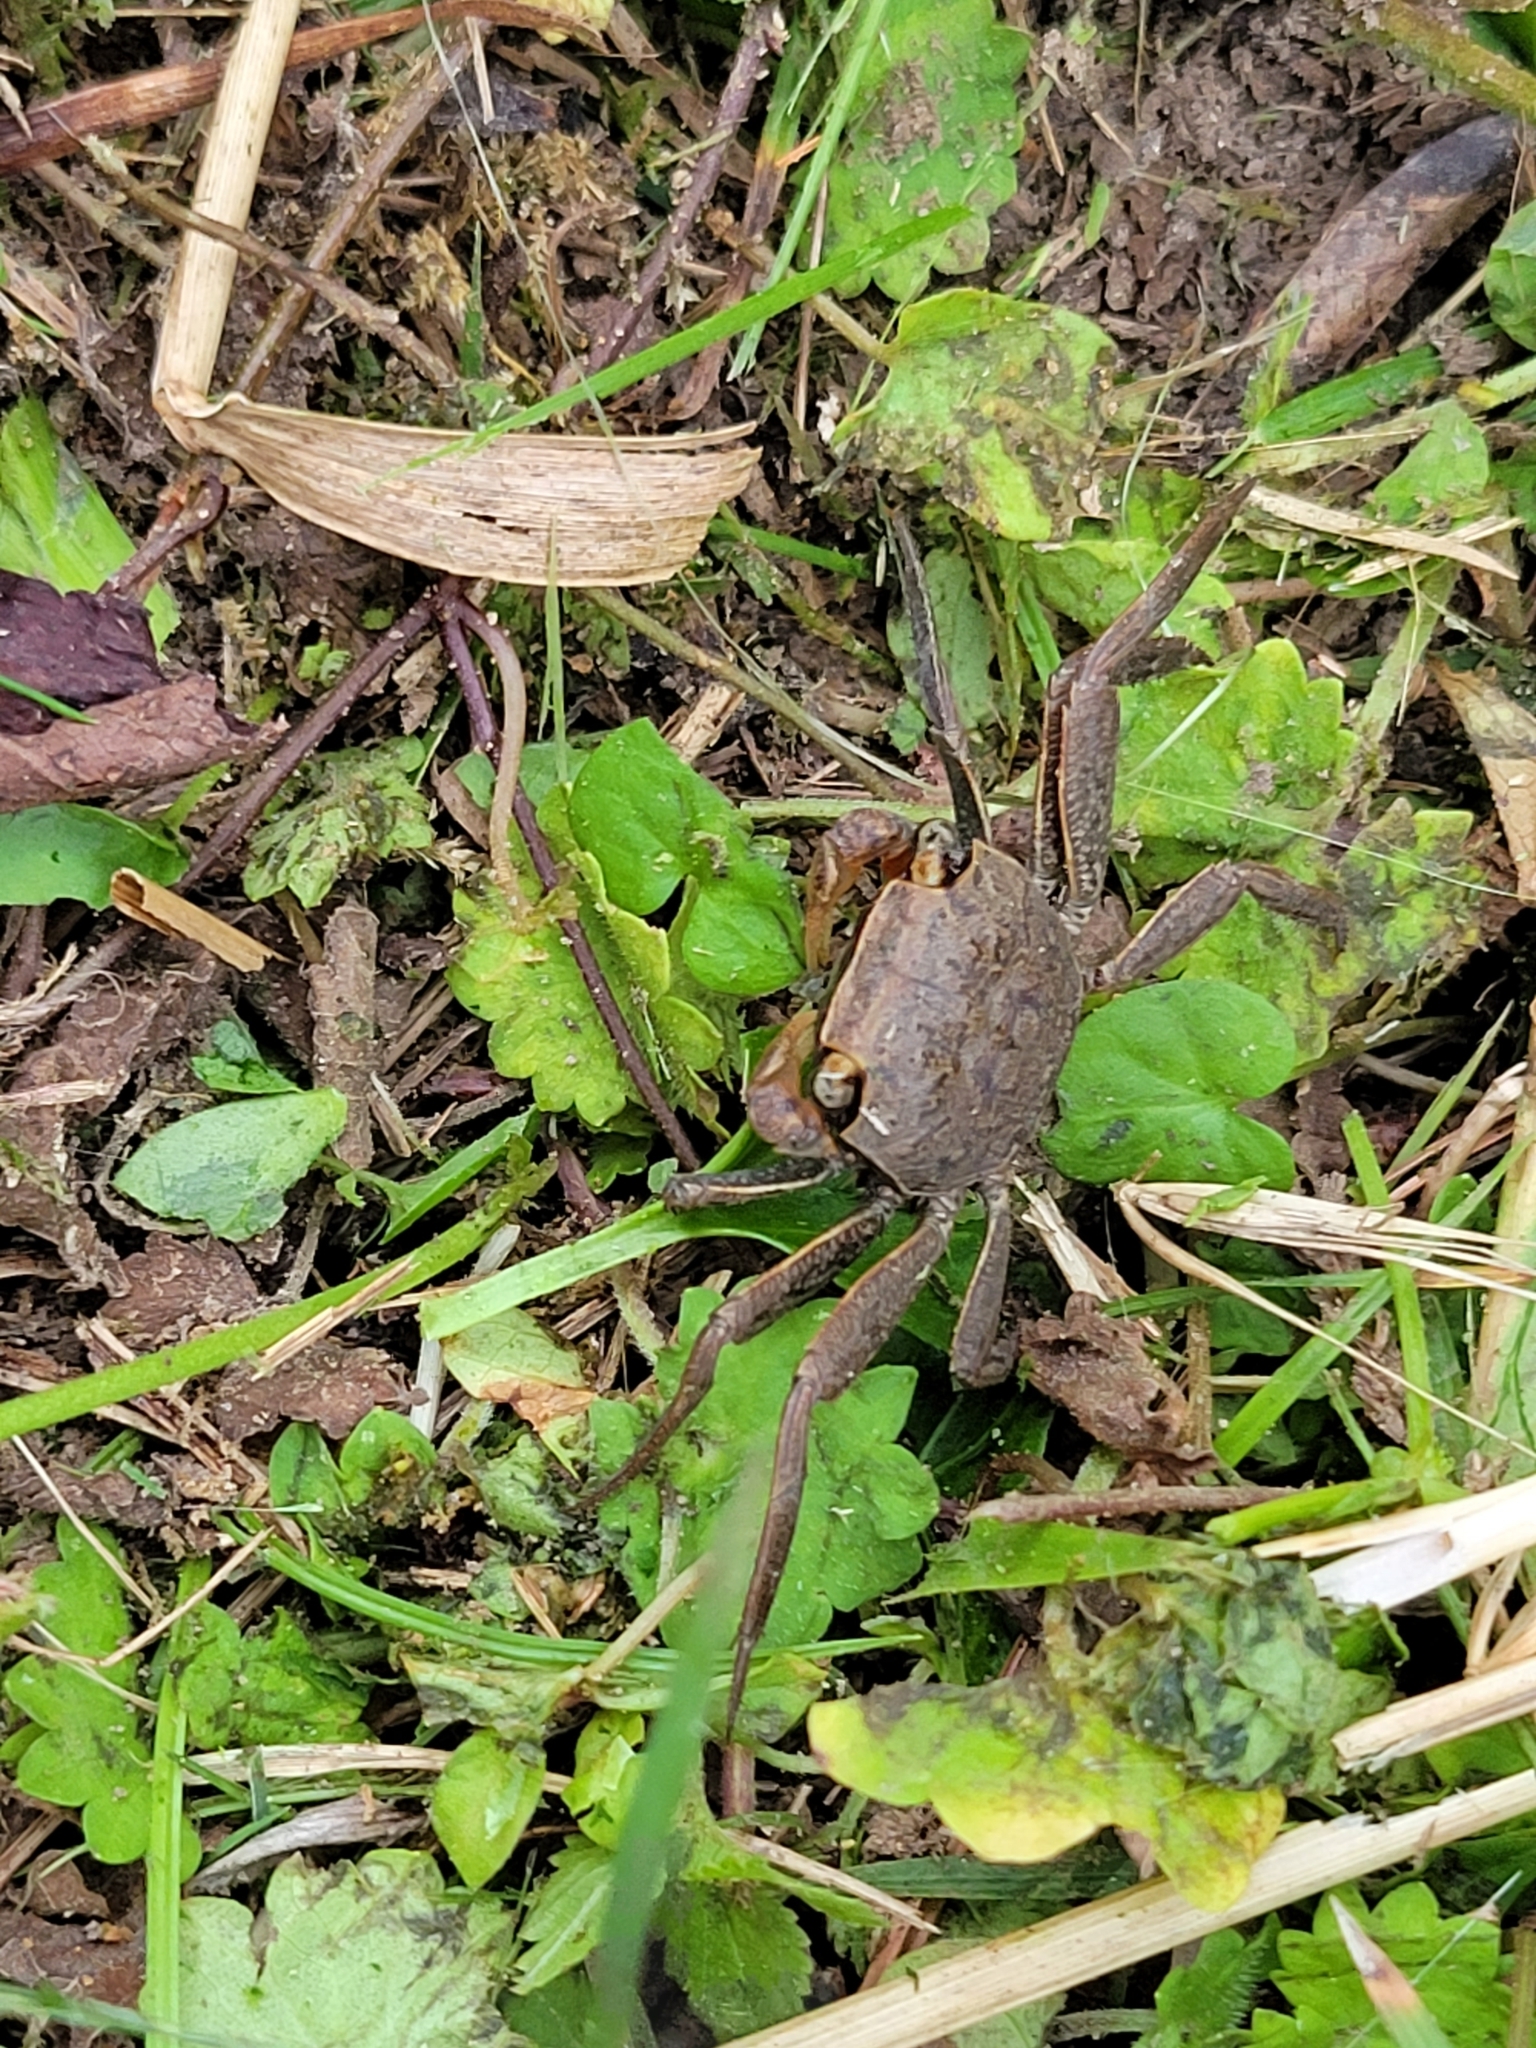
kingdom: Animalia
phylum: Arthropoda
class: Malacostraca
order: Decapoda
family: Sesarmidae
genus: Armases
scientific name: Armases cinereum
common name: Squareback marsh crab
